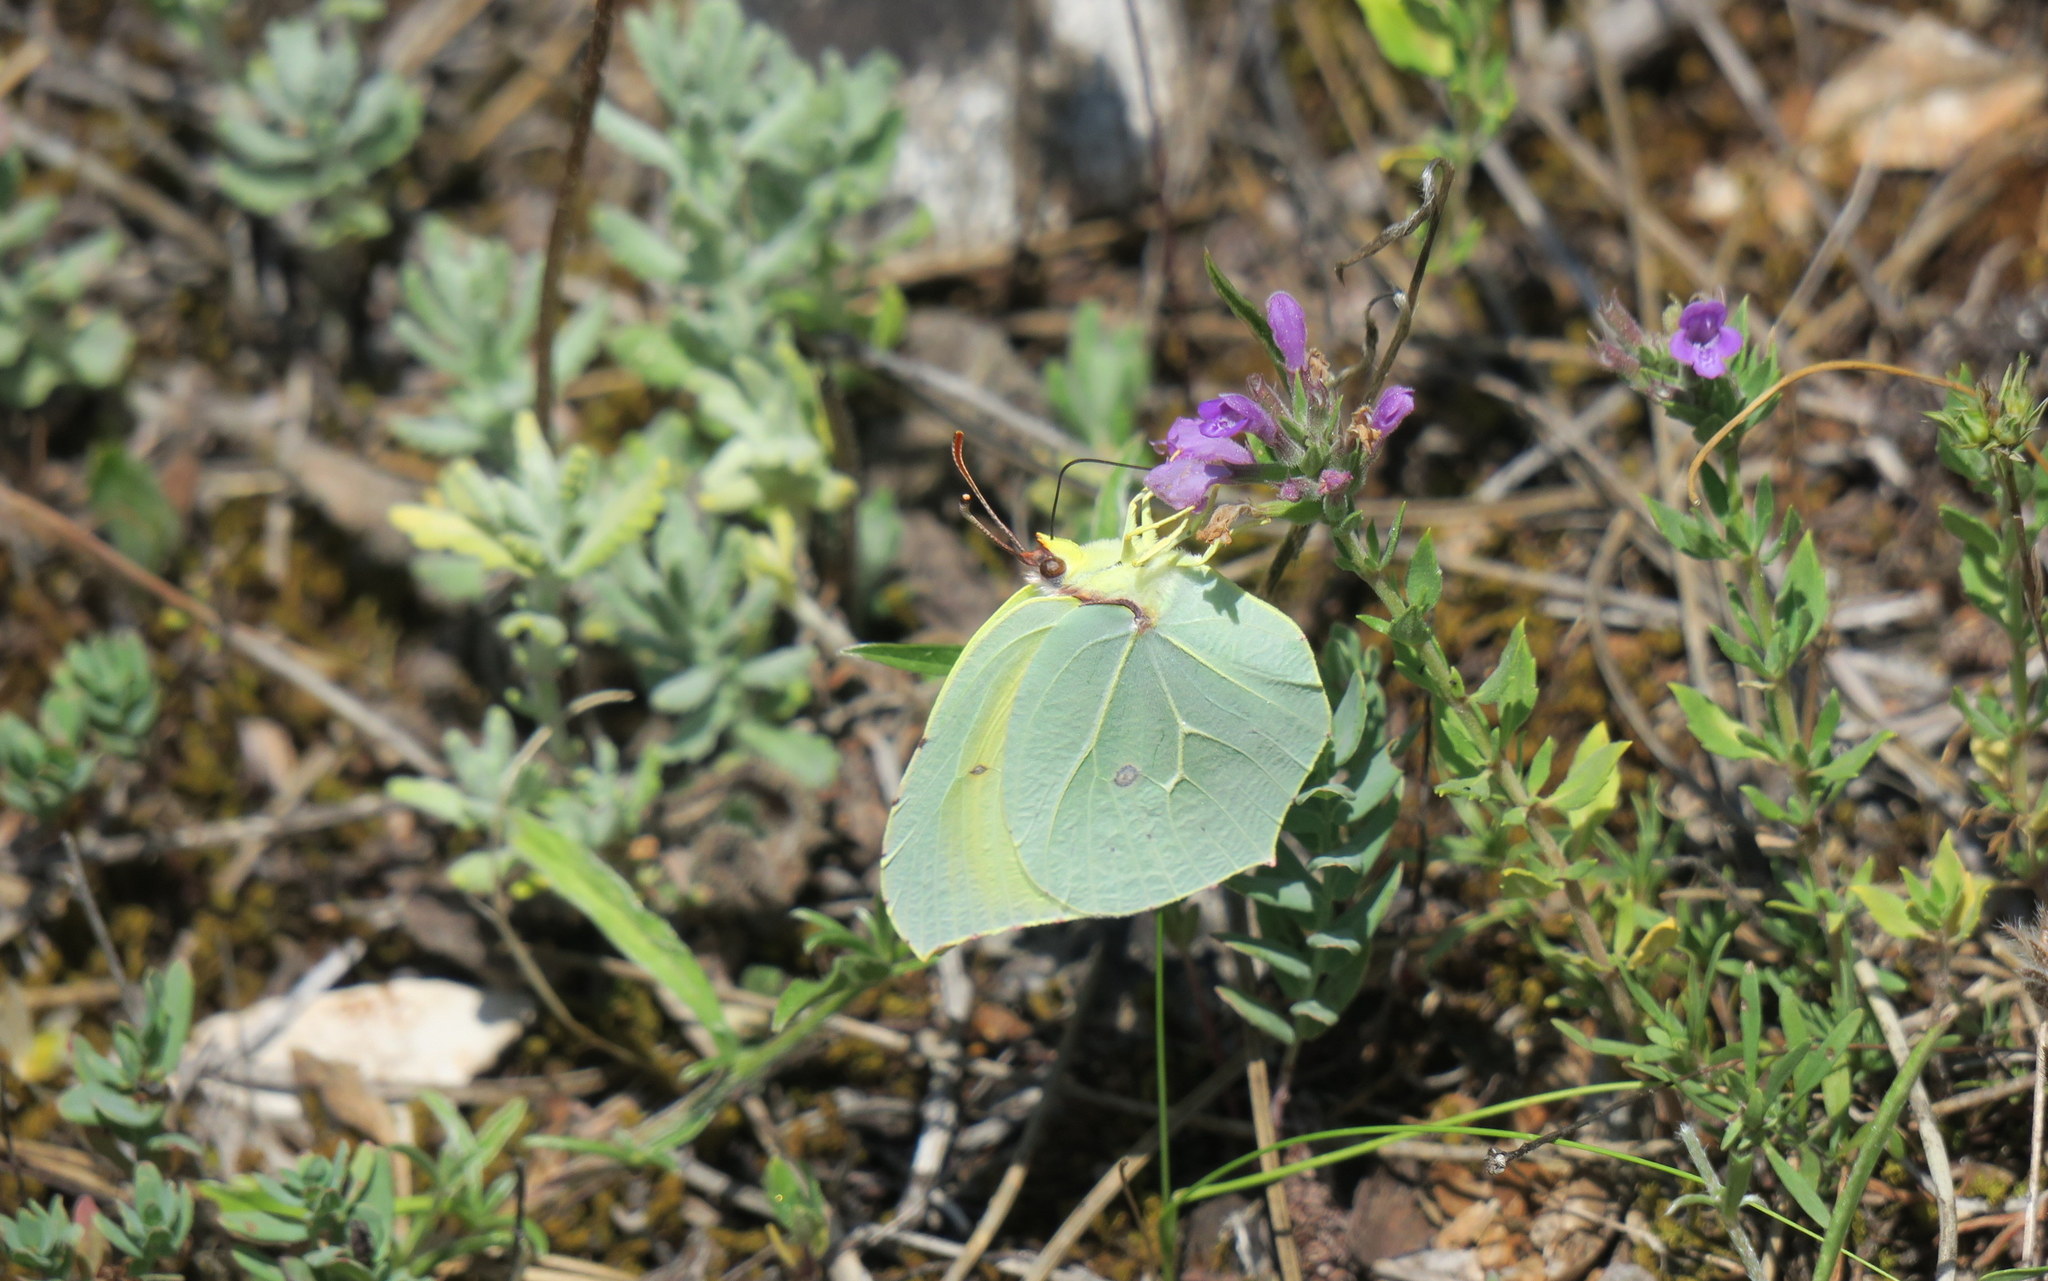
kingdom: Animalia
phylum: Arthropoda
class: Insecta
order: Lepidoptera
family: Pieridae
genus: Gonepteryx
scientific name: Gonepteryx cleopatra
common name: Cleopatra
